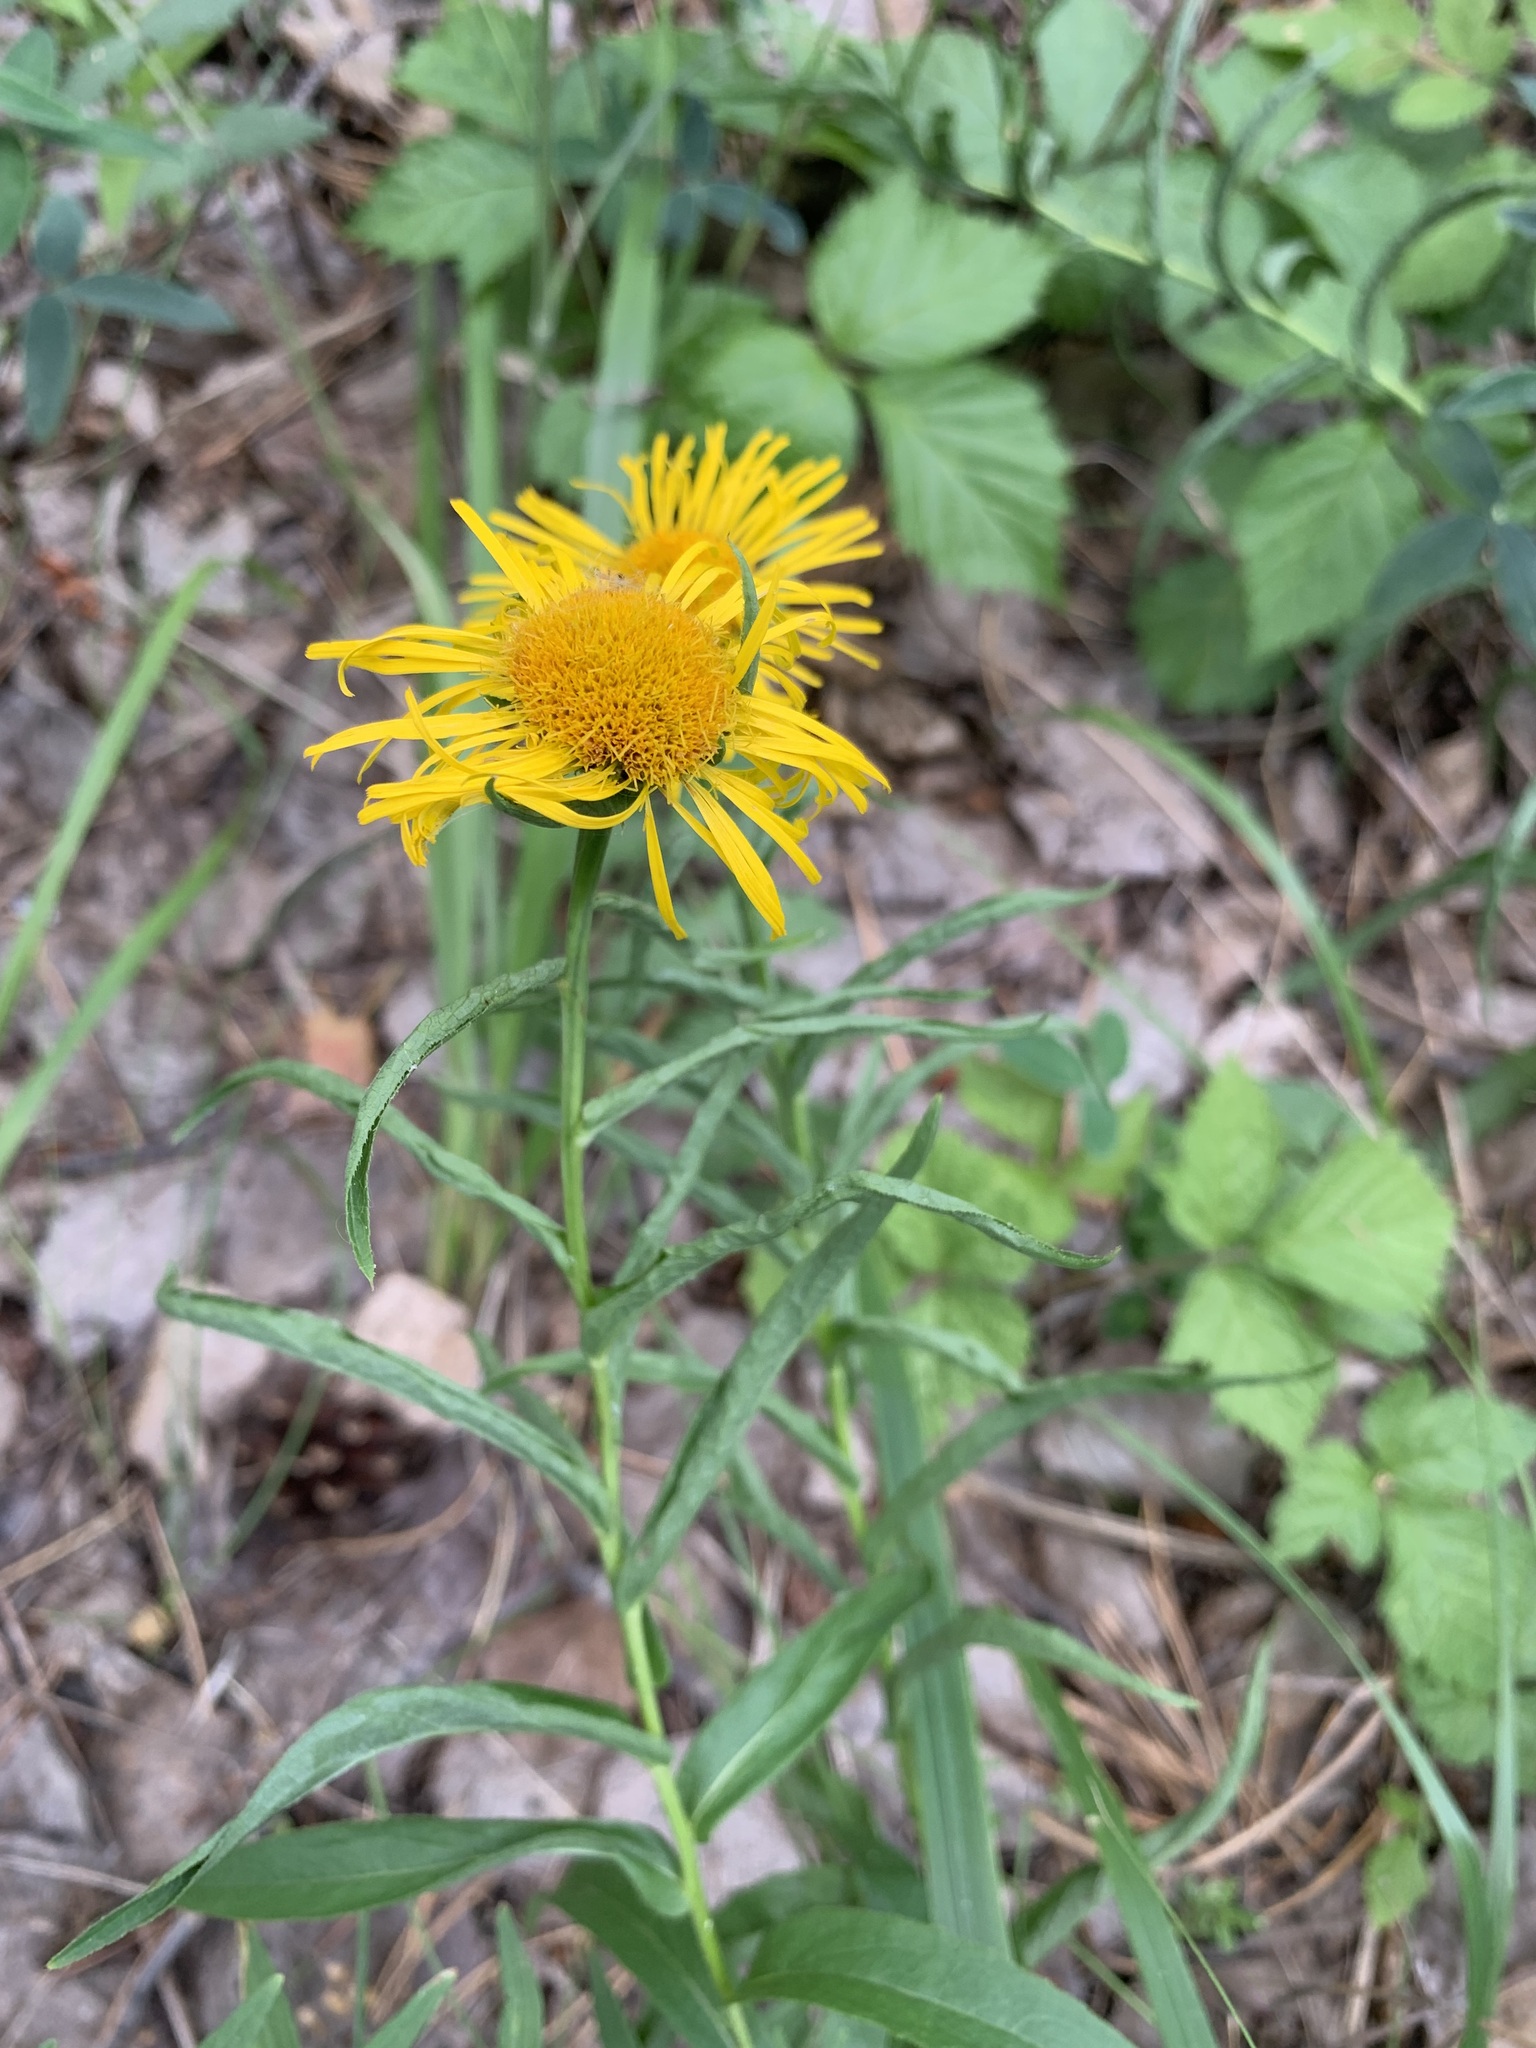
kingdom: Plantae
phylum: Tracheophyta
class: Magnoliopsida
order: Asterales
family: Asteraceae
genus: Pentanema
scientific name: Pentanema salicinum
